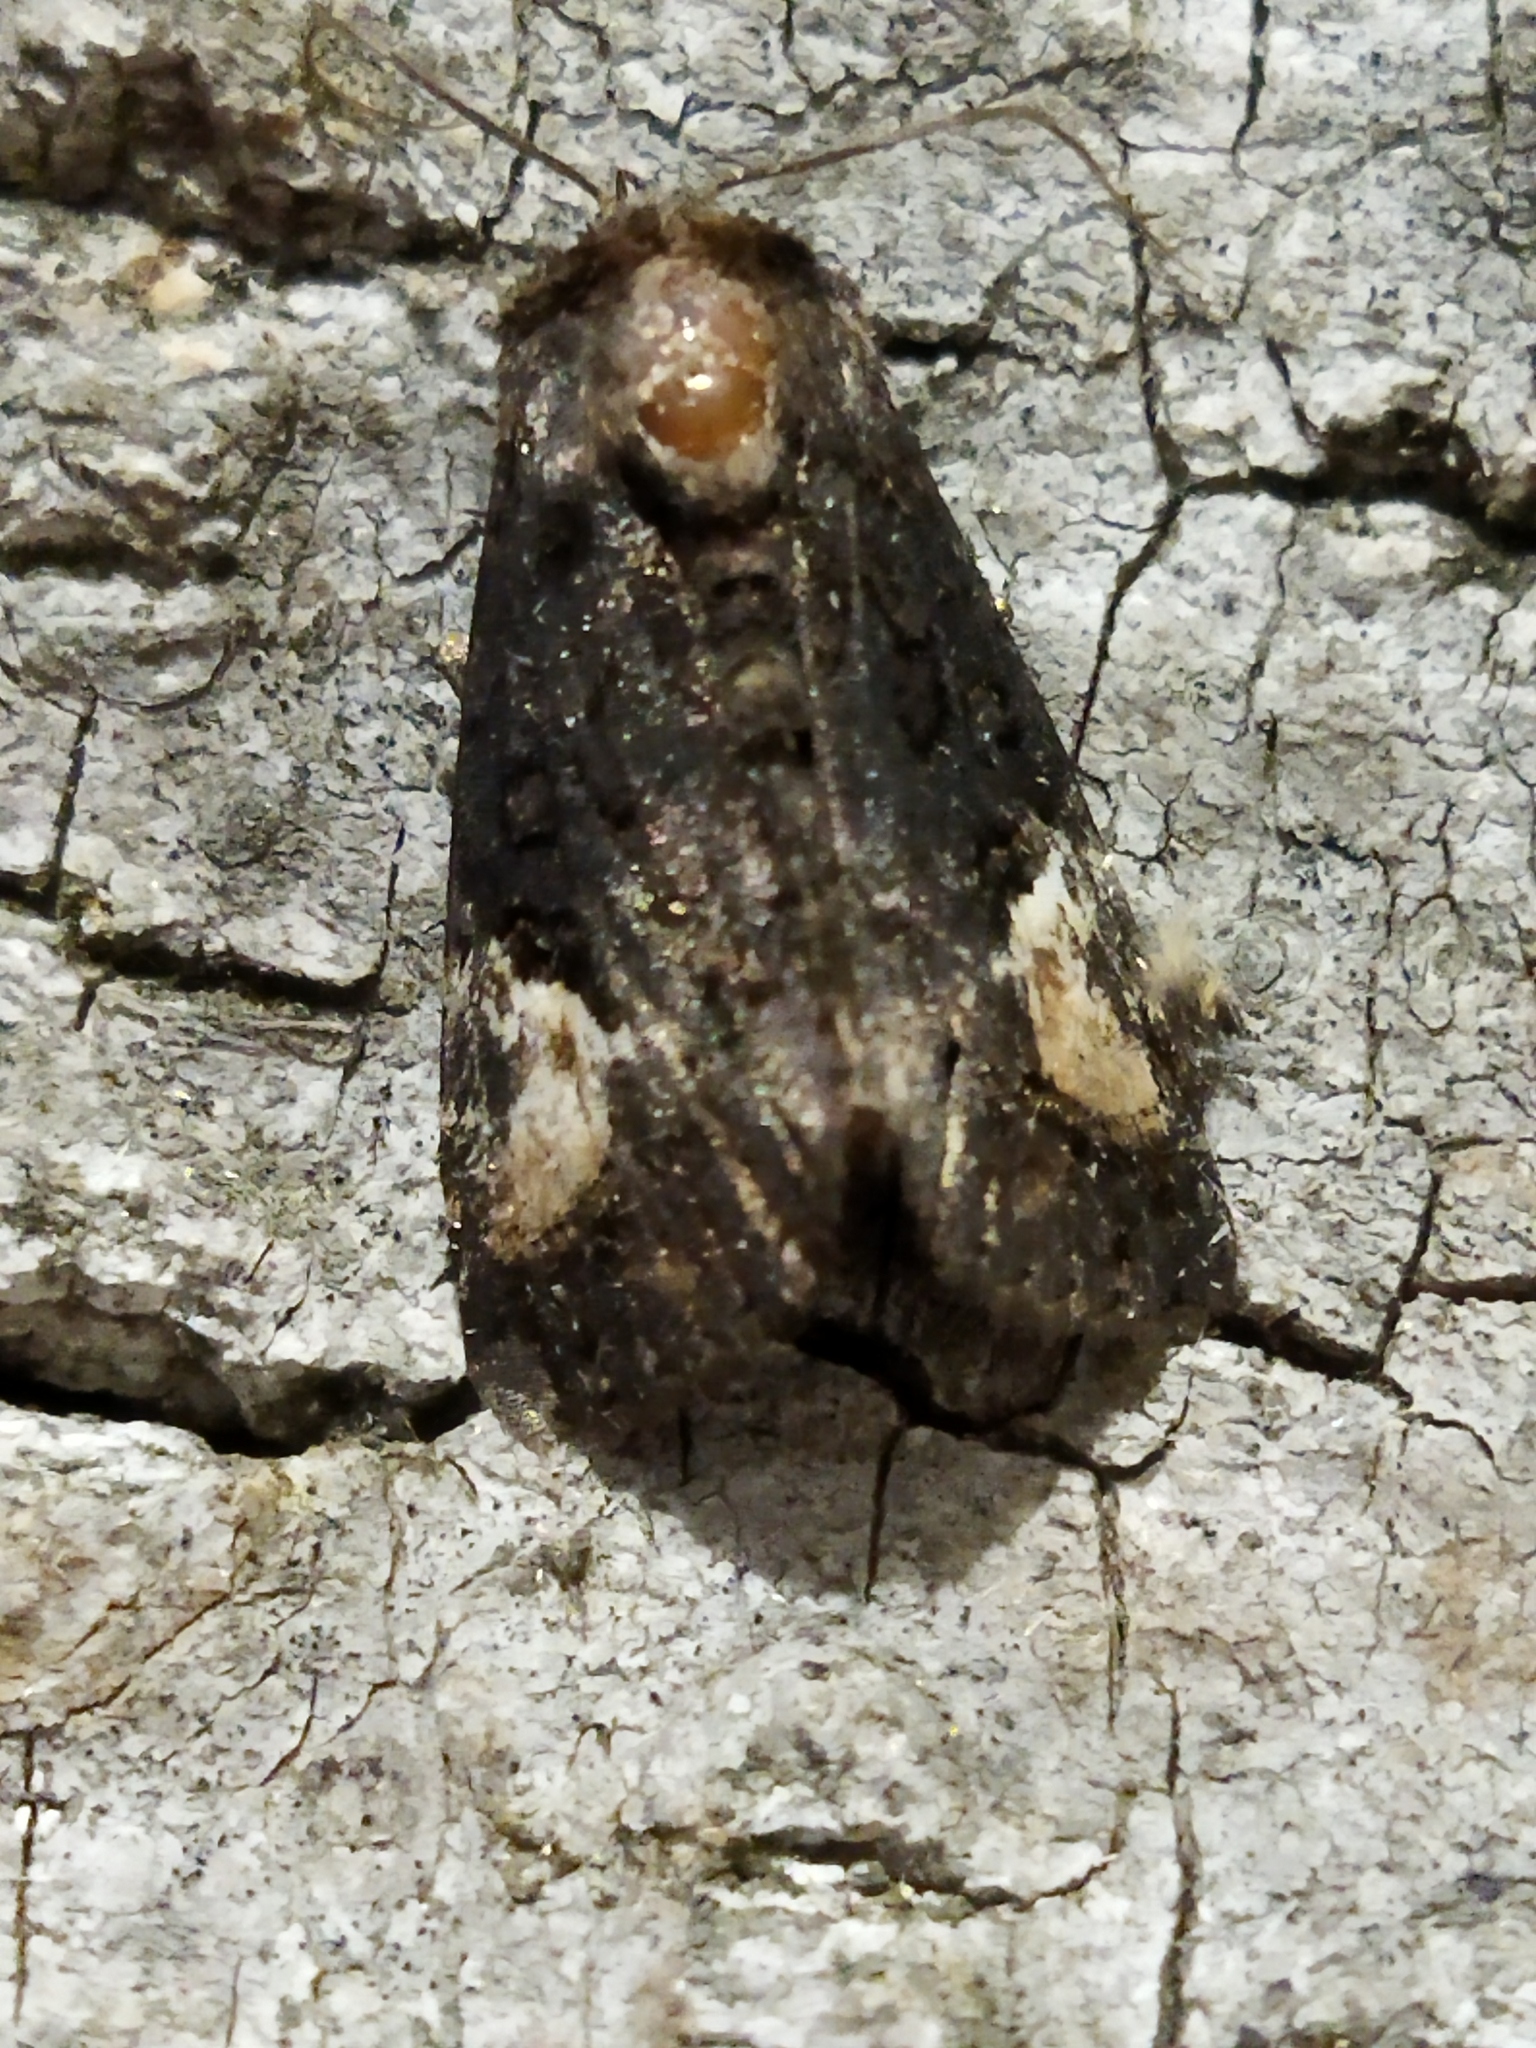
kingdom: Animalia
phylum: Arthropoda
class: Insecta
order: Lepidoptera
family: Noctuidae
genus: Aedia
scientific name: Aedia funesta
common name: The druid
